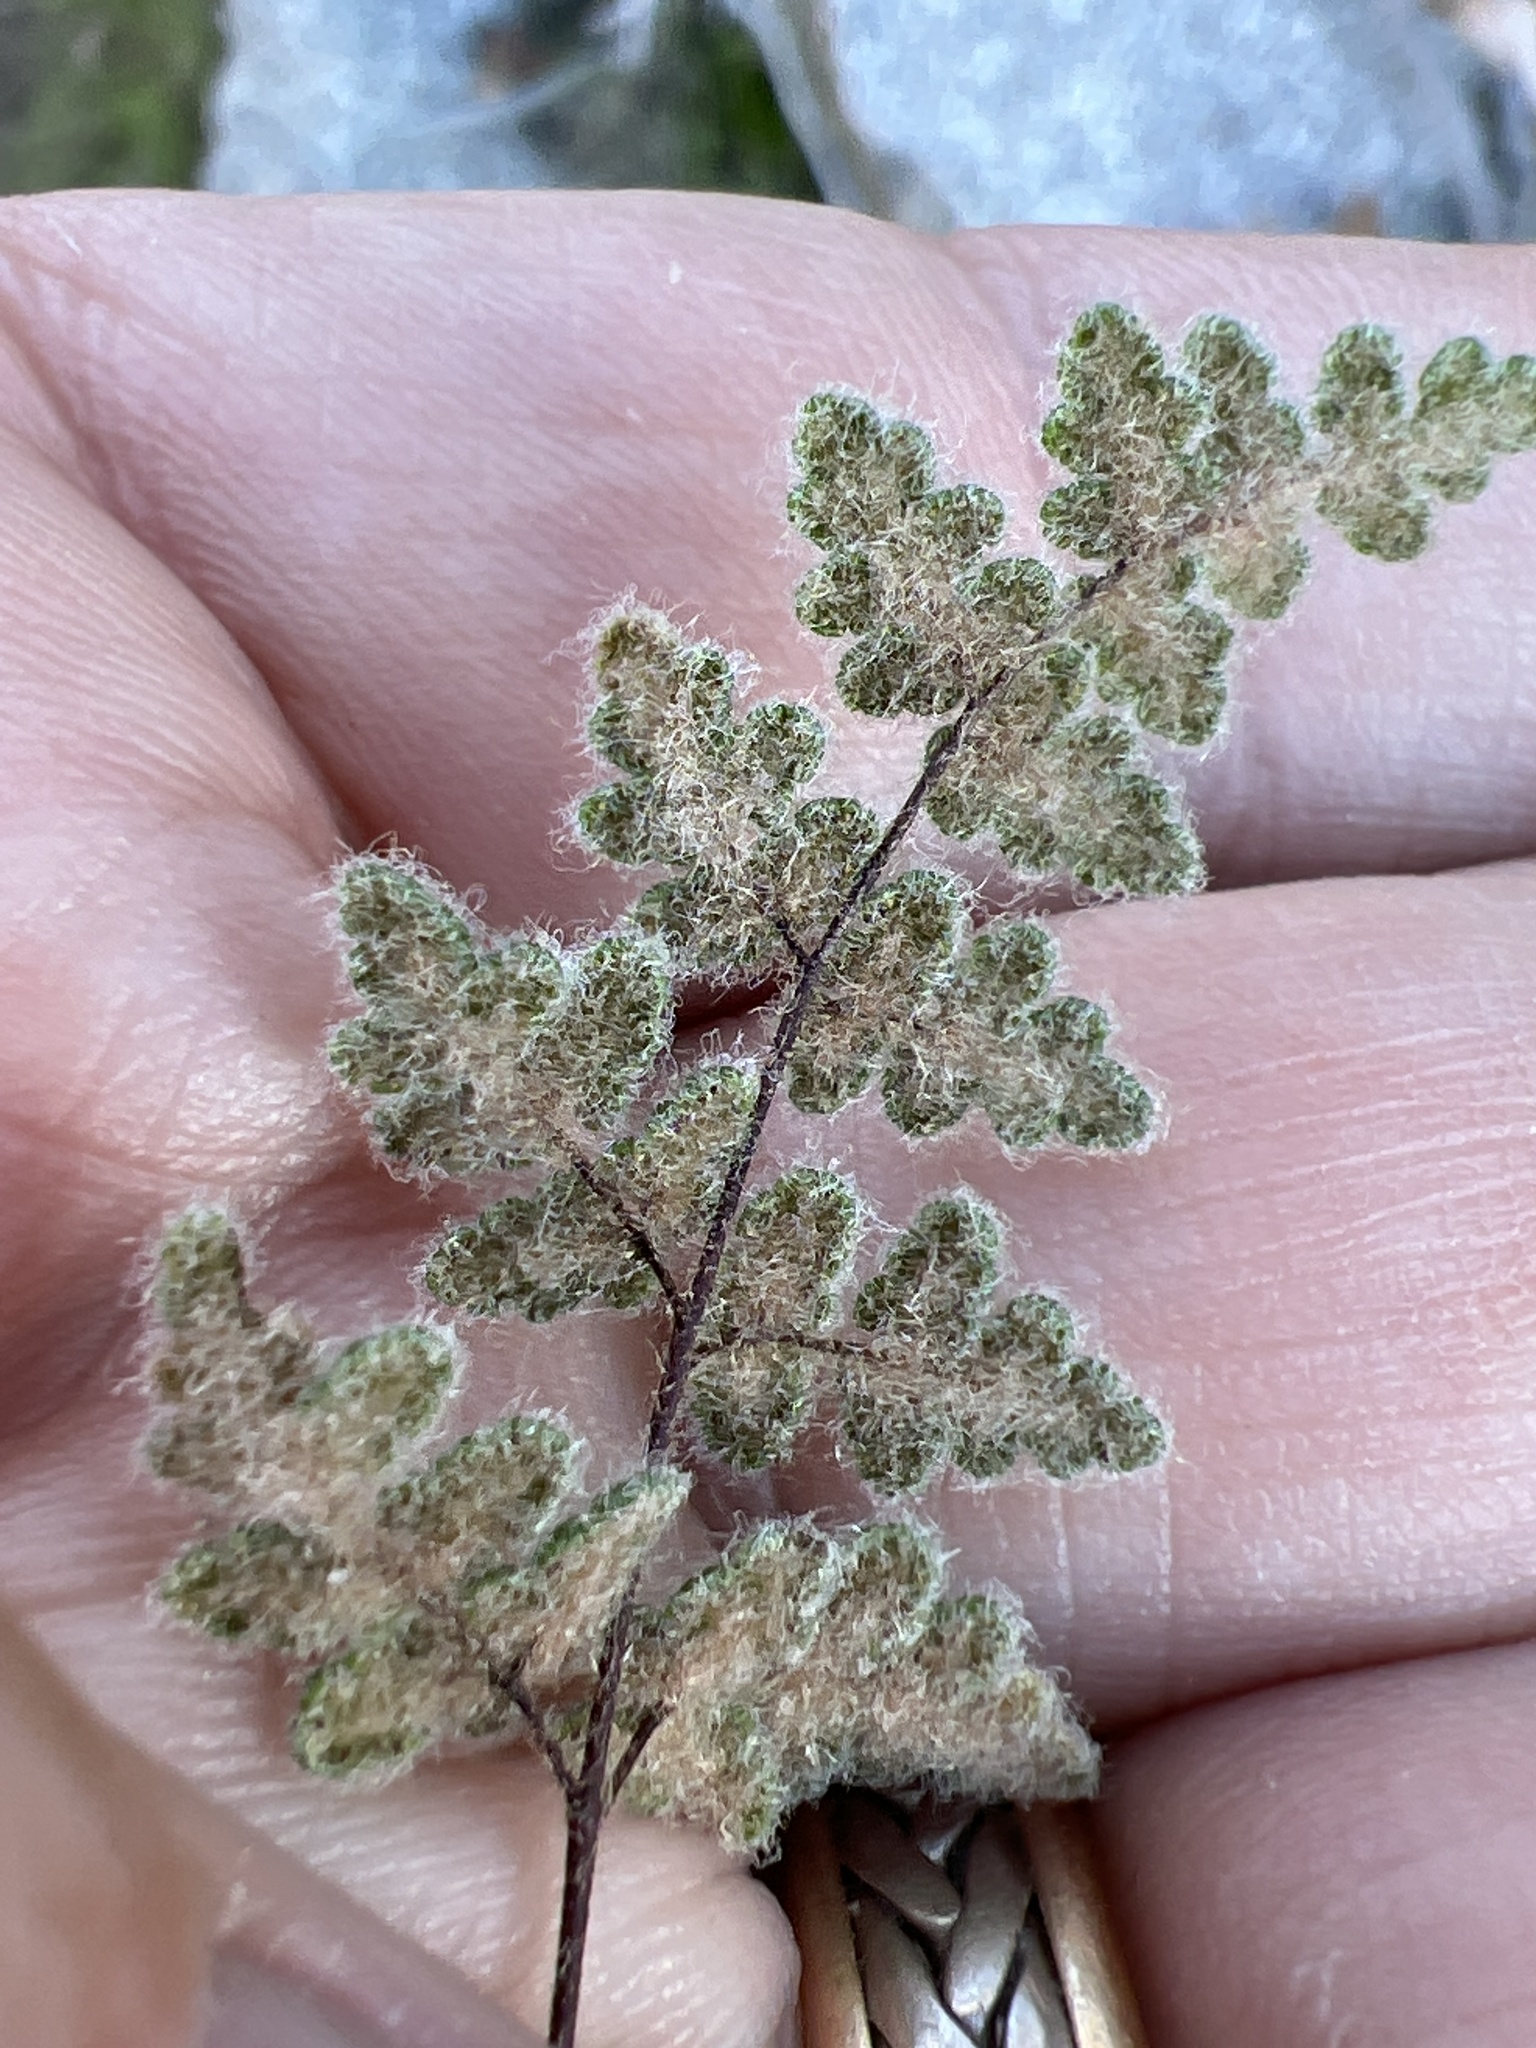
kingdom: Plantae
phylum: Tracheophyta
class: Polypodiopsida
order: Polypodiales
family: Pteridaceae
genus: Myriopteris
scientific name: Myriopteris parryi
